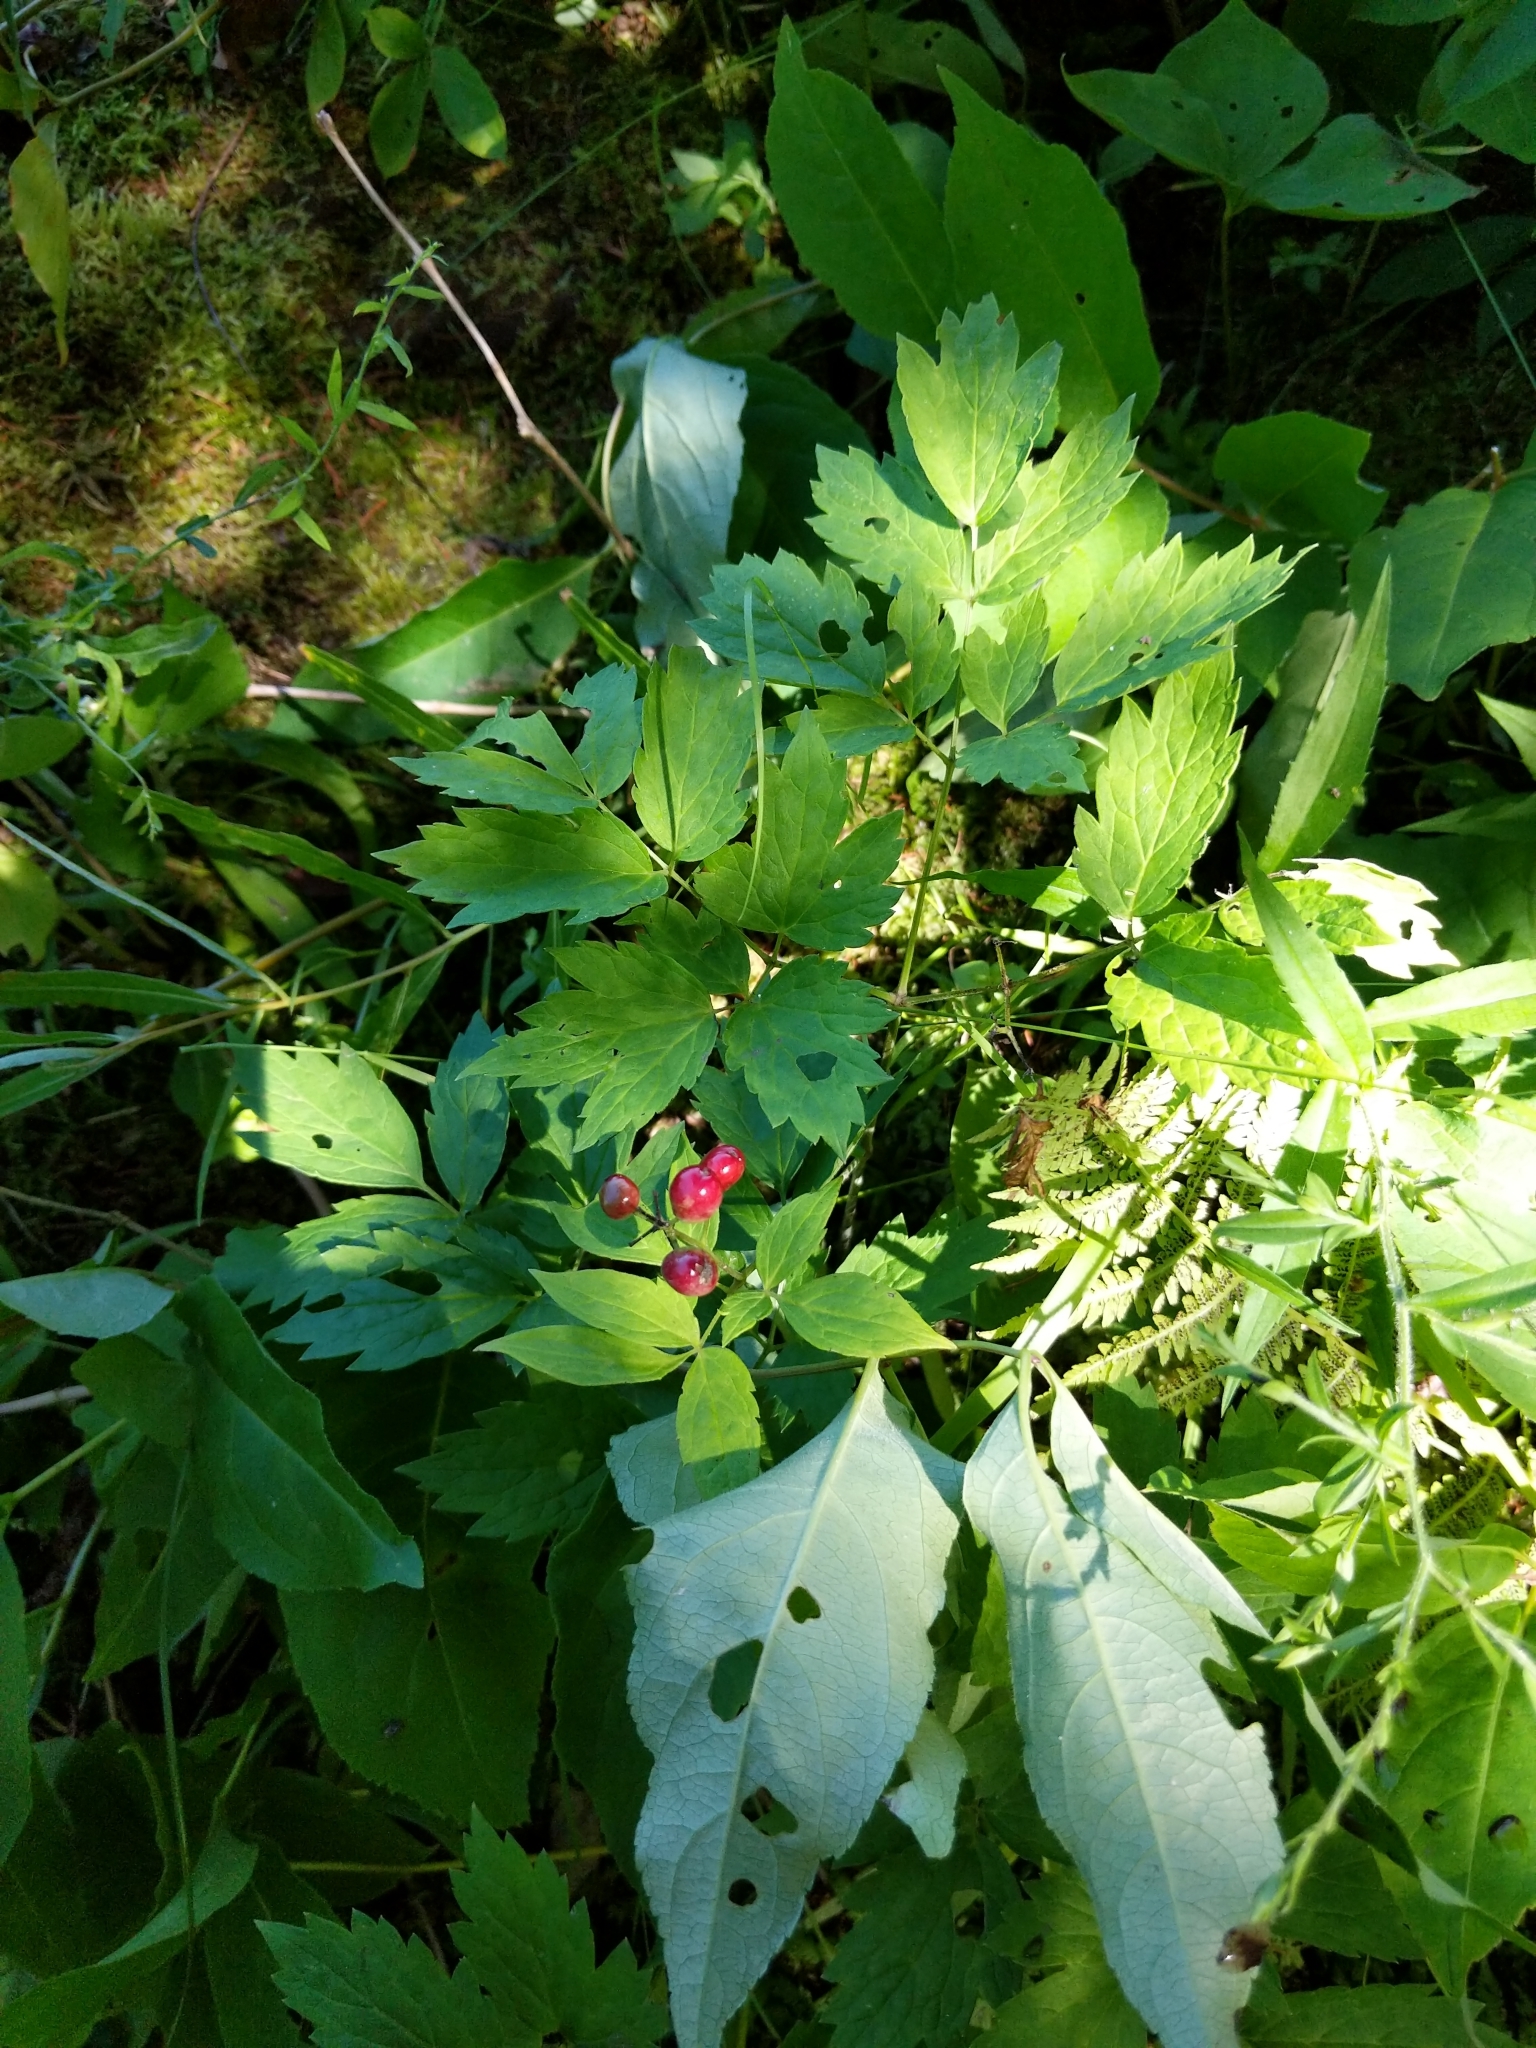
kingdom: Plantae
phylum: Tracheophyta
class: Magnoliopsida
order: Ranunculales
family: Ranunculaceae
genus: Actaea
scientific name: Actaea rubra
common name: Red baneberry
